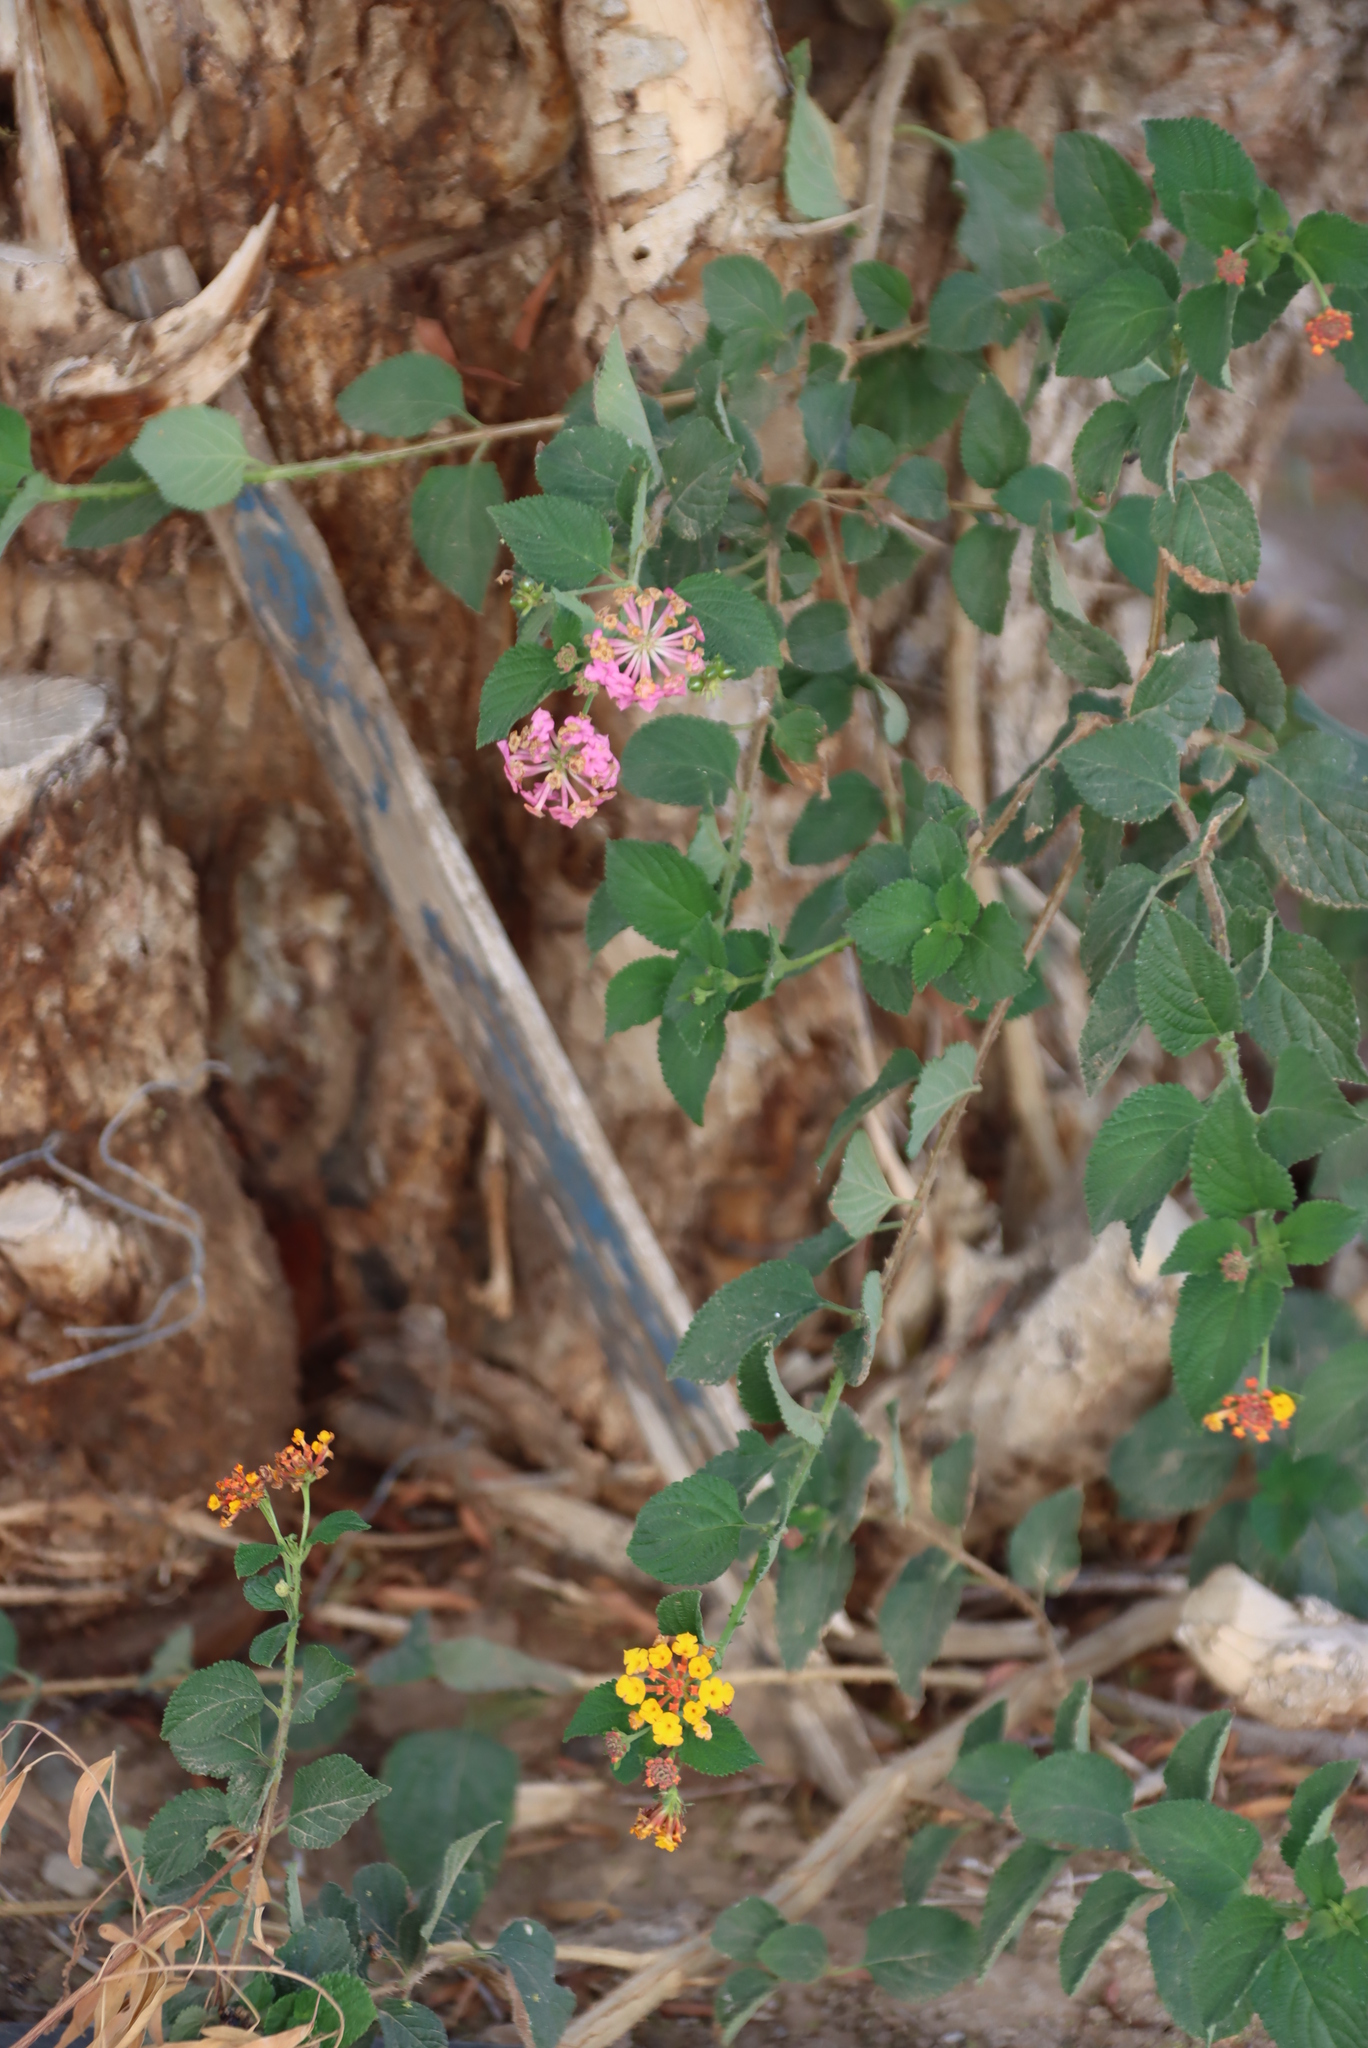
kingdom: Plantae
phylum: Tracheophyta
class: Magnoliopsida
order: Lamiales
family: Verbenaceae
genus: Lantana
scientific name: Lantana camara
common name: Lantana
